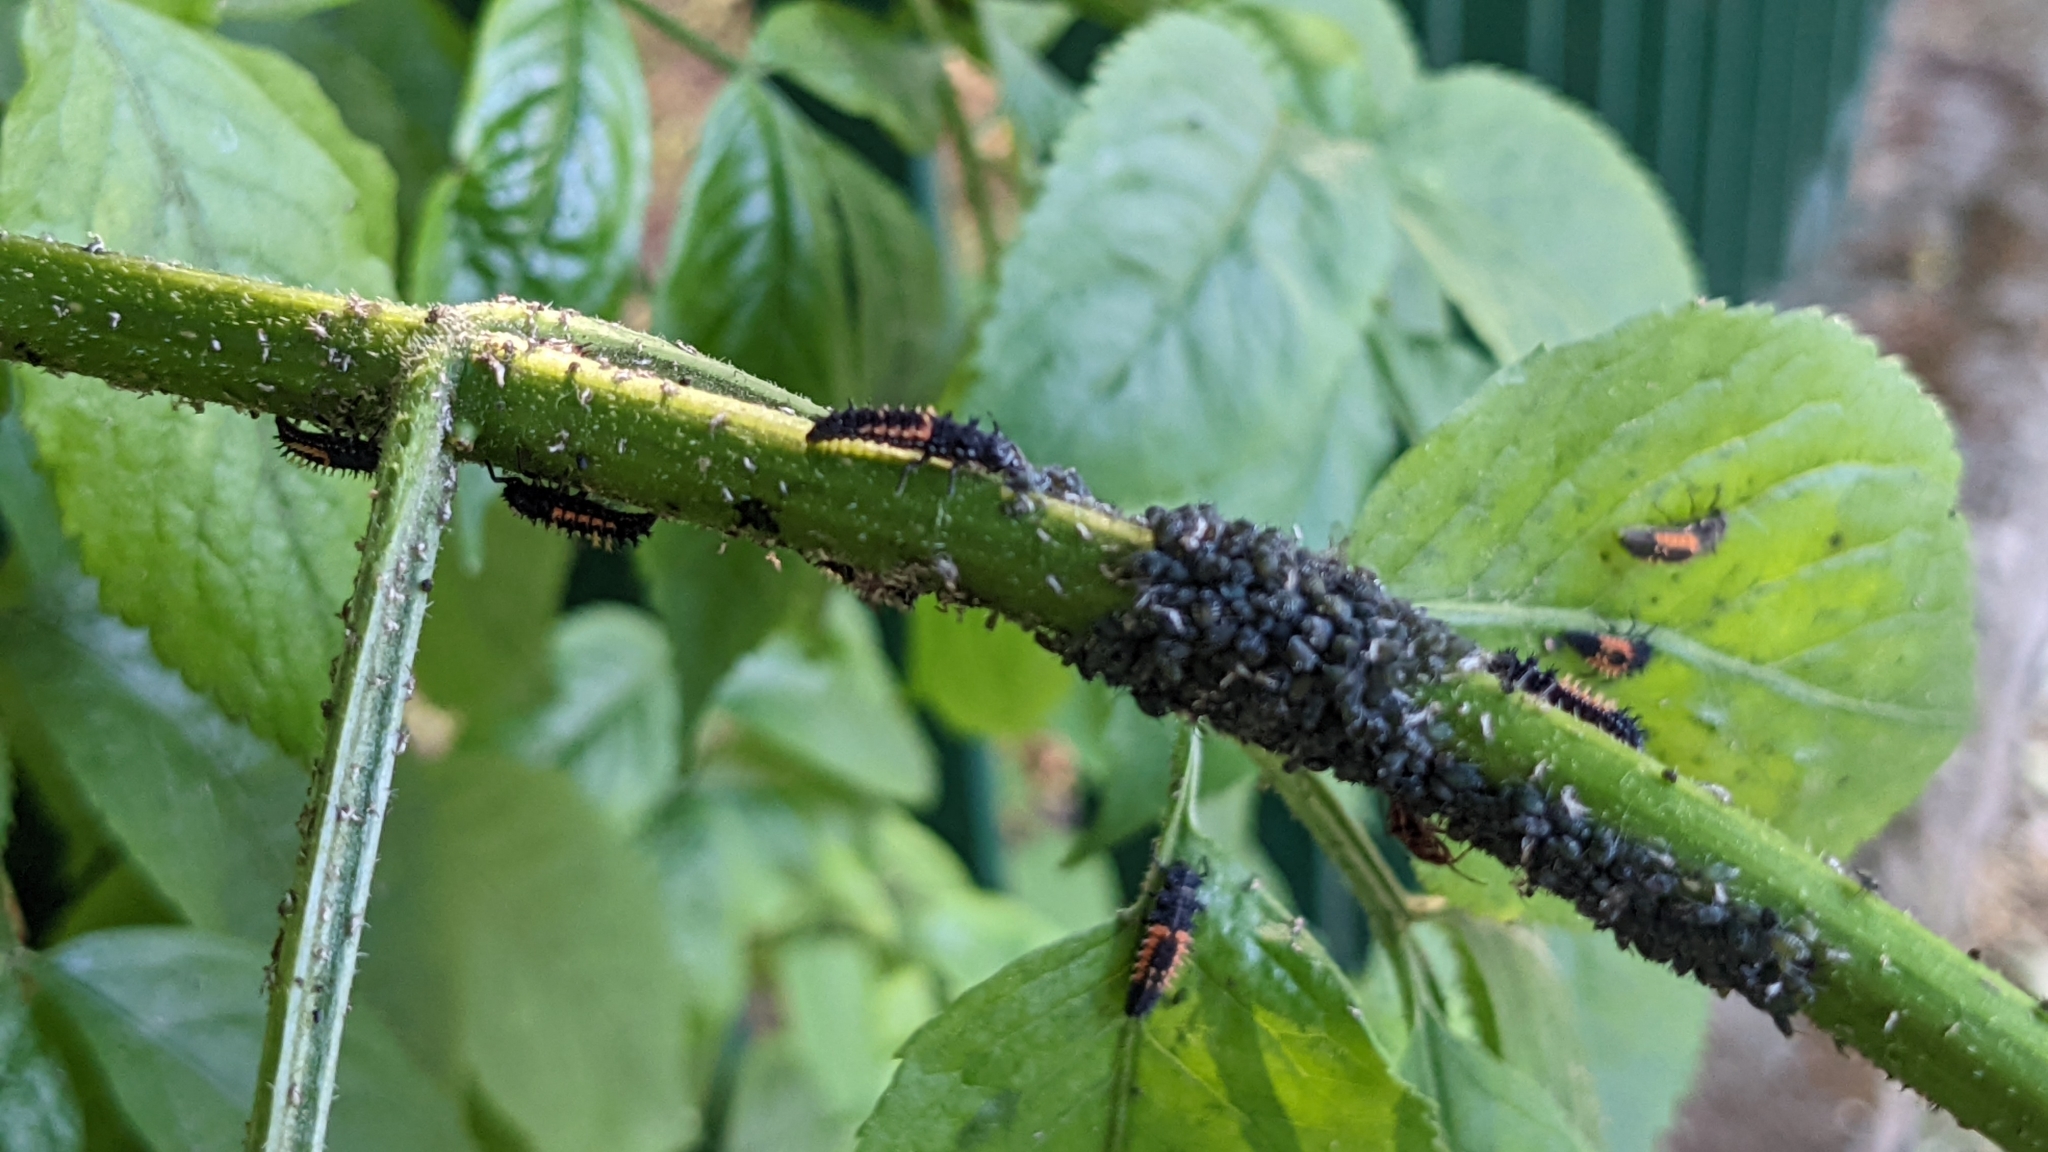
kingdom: Animalia
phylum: Arthropoda
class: Insecta
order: Coleoptera
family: Coccinellidae
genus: Harmonia
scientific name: Harmonia axyridis
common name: Harlequin ladybird
